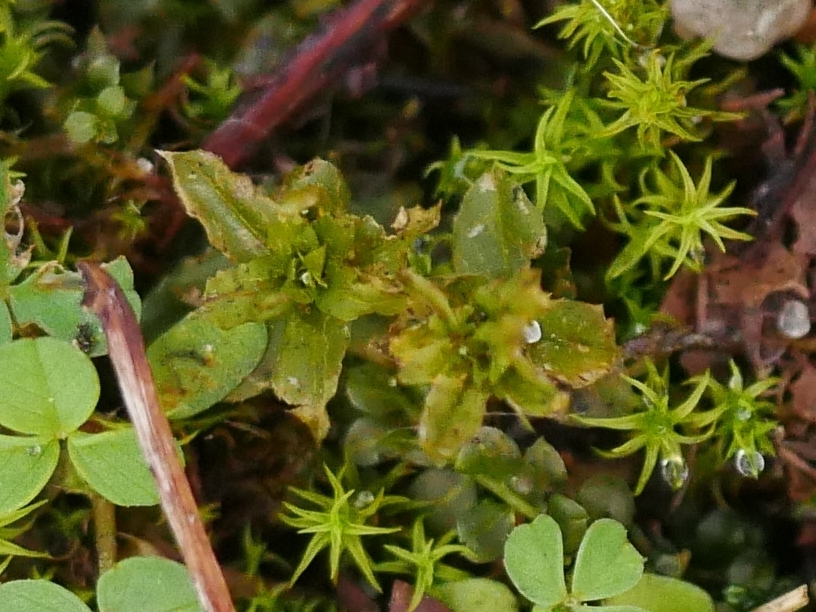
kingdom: Plantae
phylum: Bryophyta
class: Bryopsida
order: Bryales
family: Mniaceae
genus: Plagiomnium
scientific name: Plagiomnium undulatum
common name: Hart's-tongue thyme-moss
